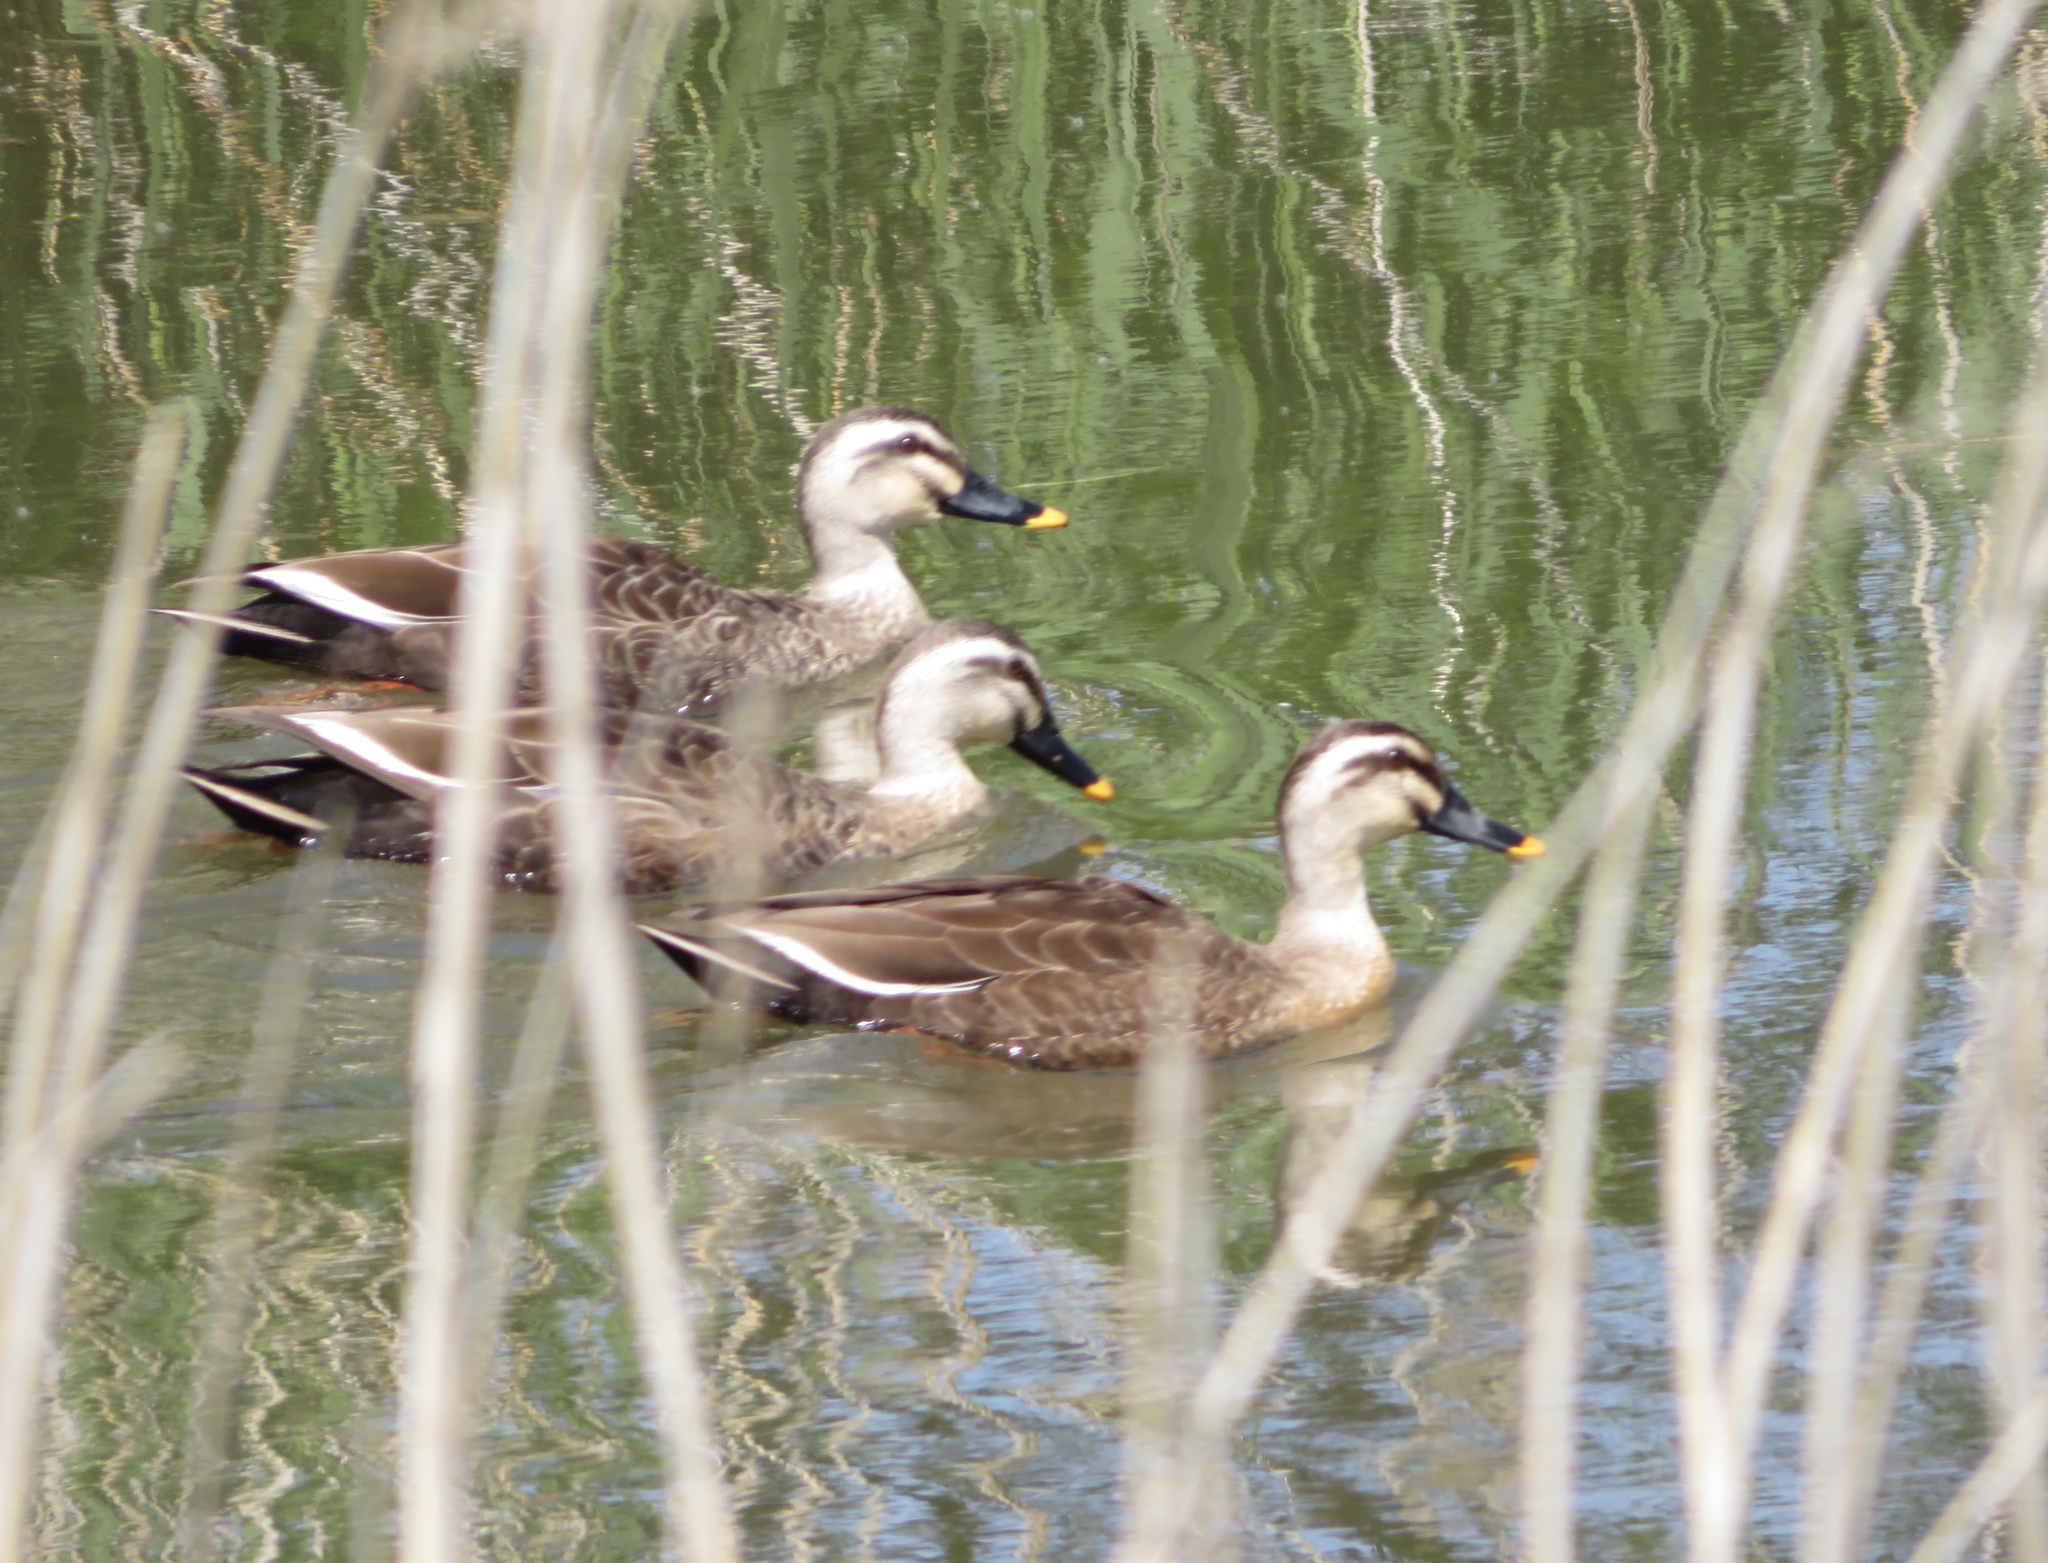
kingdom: Animalia
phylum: Chordata
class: Aves
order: Anseriformes
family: Anatidae
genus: Anas
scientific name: Anas zonorhyncha
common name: Eastern spot-billed duck
